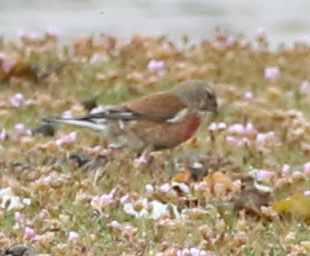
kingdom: Animalia
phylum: Chordata
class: Aves
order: Passeriformes
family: Fringillidae
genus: Linaria
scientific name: Linaria cannabina
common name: Common linnet
